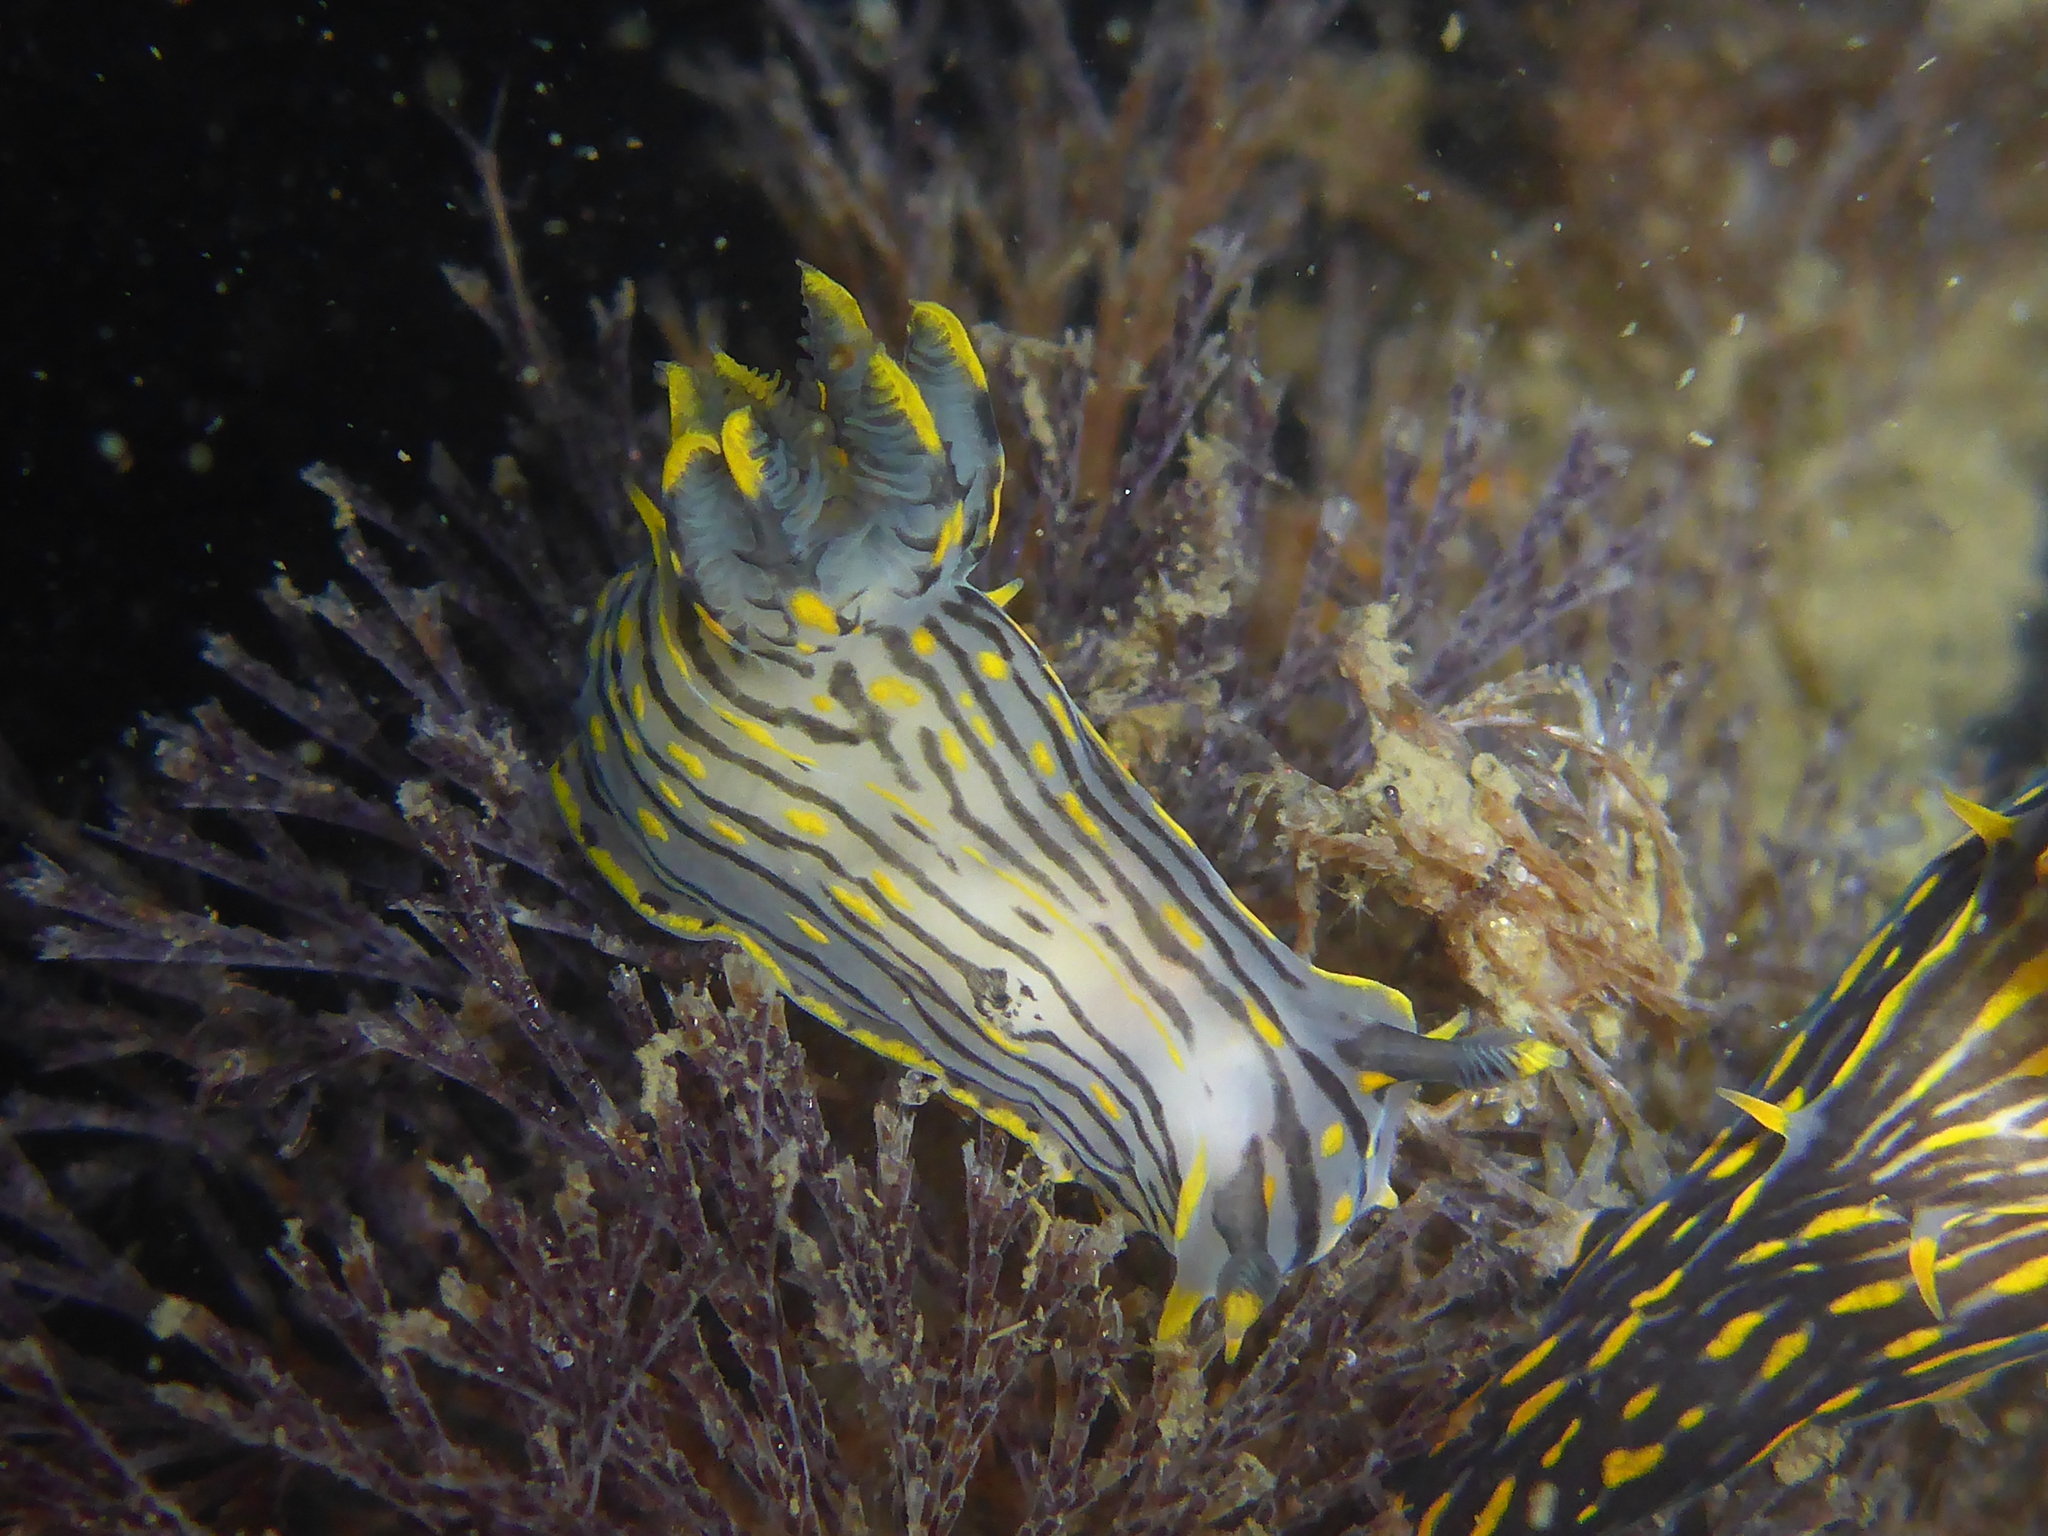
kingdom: Animalia
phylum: Mollusca
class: Gastropoda
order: Nudibranchia
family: Polyceridae
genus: Polycera
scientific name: Polycera atra
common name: Orange-spike polycera
